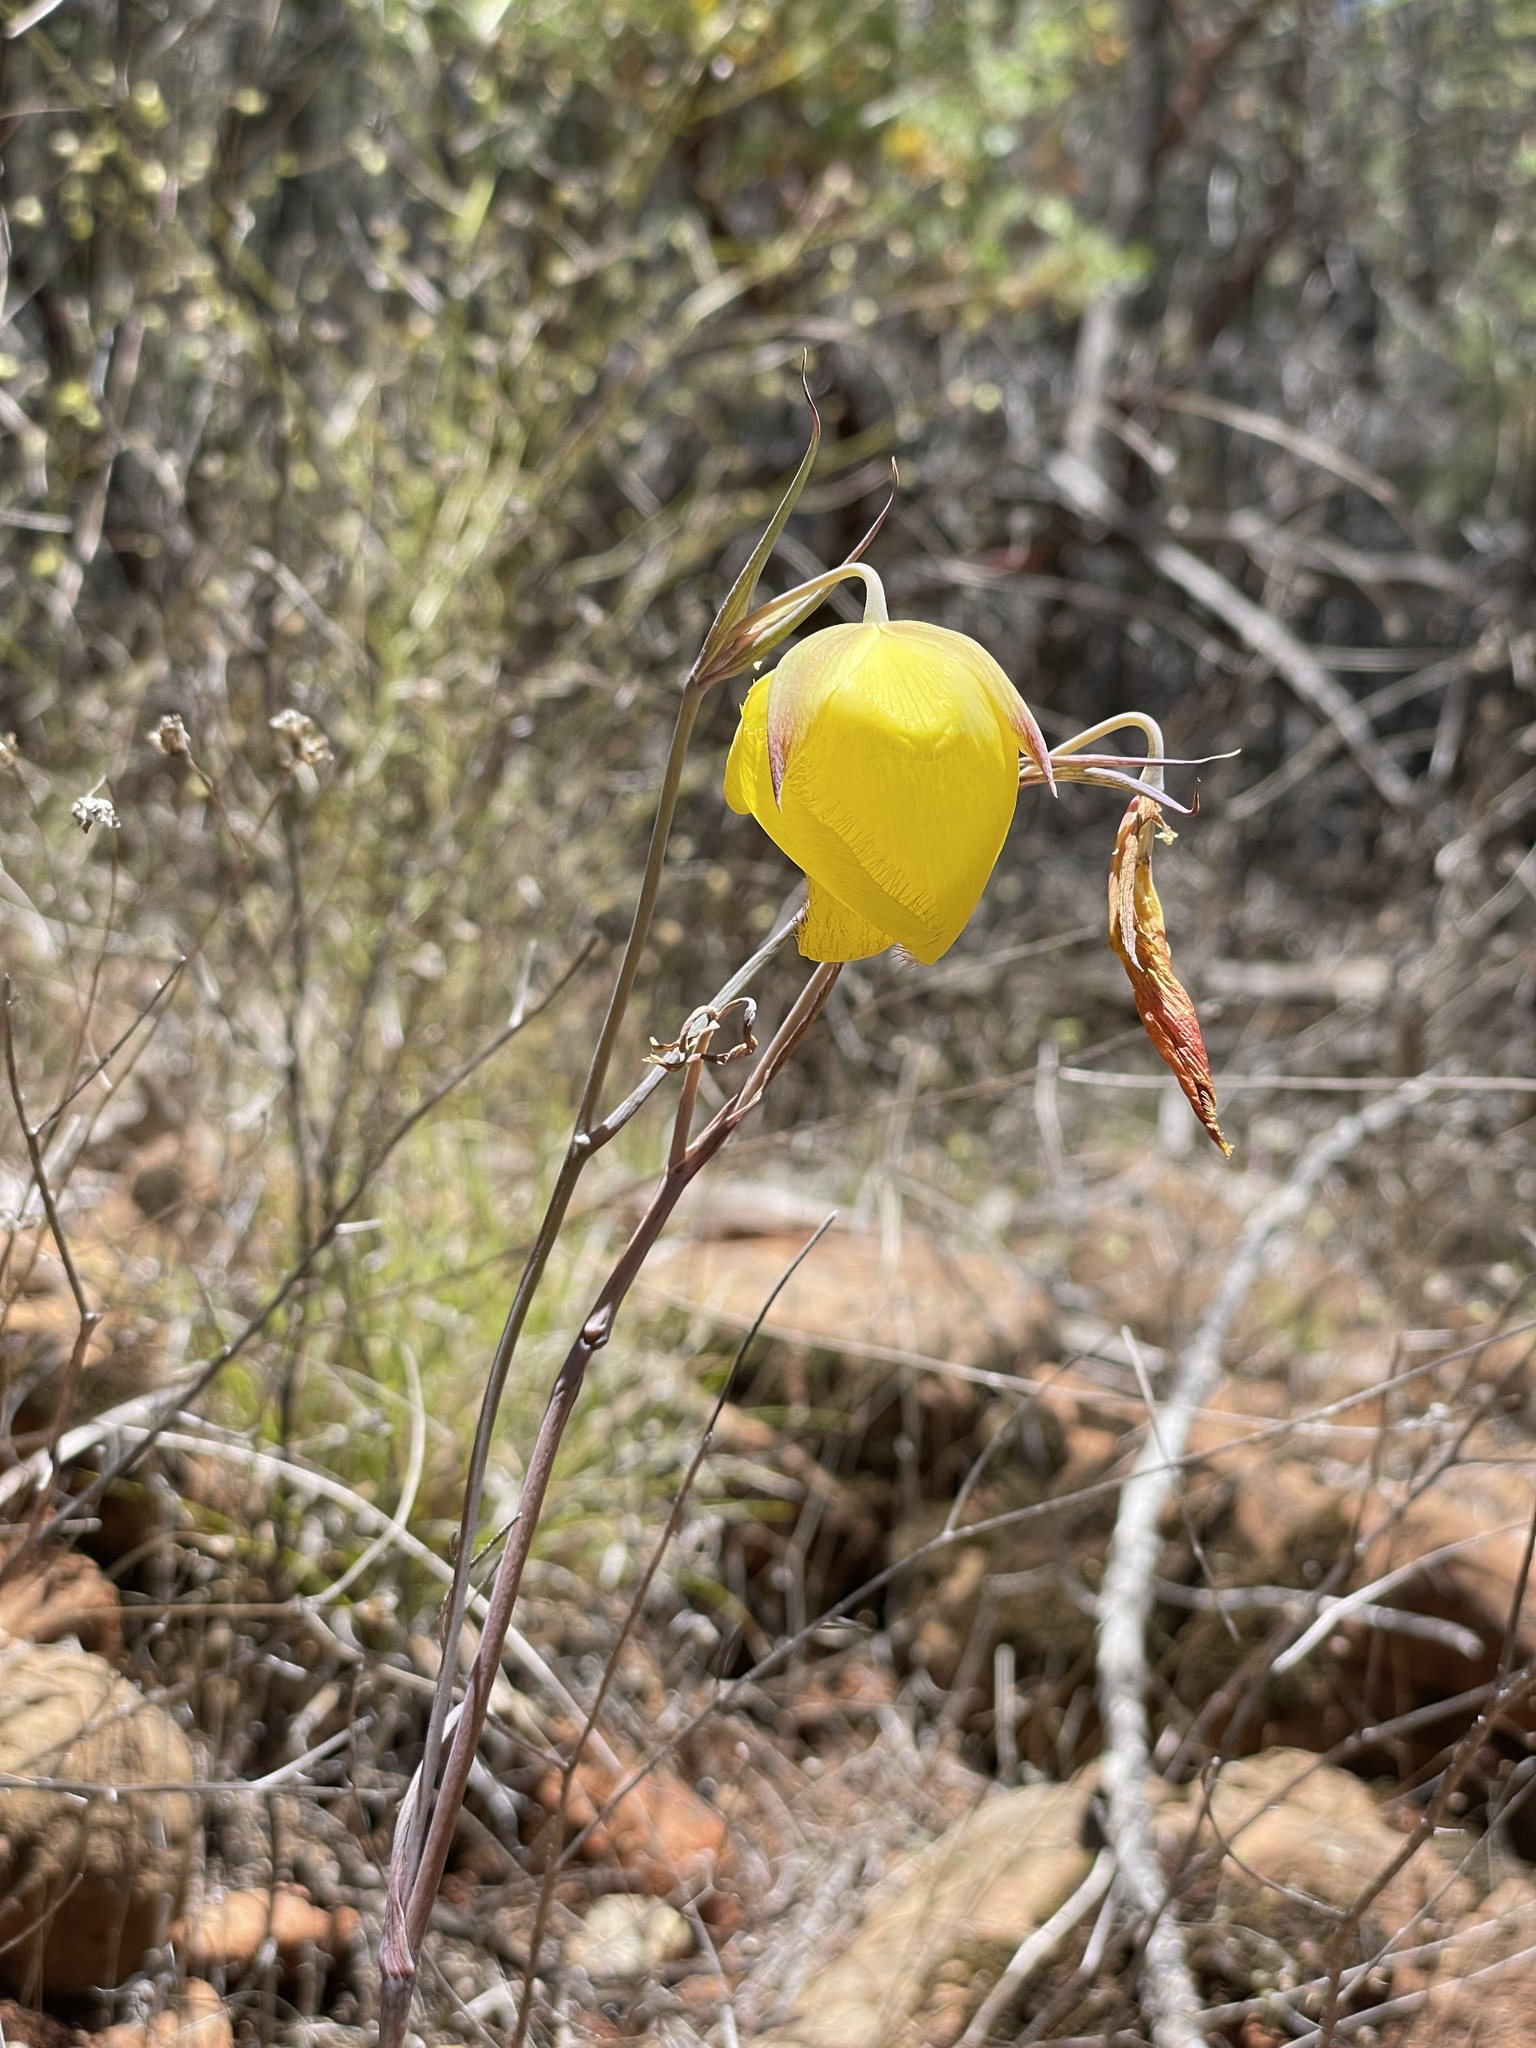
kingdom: Plantae
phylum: Tracheophyta
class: Liliopsida
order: Liliales
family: Liliaceae
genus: Calochortus
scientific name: Calochortus raichei
